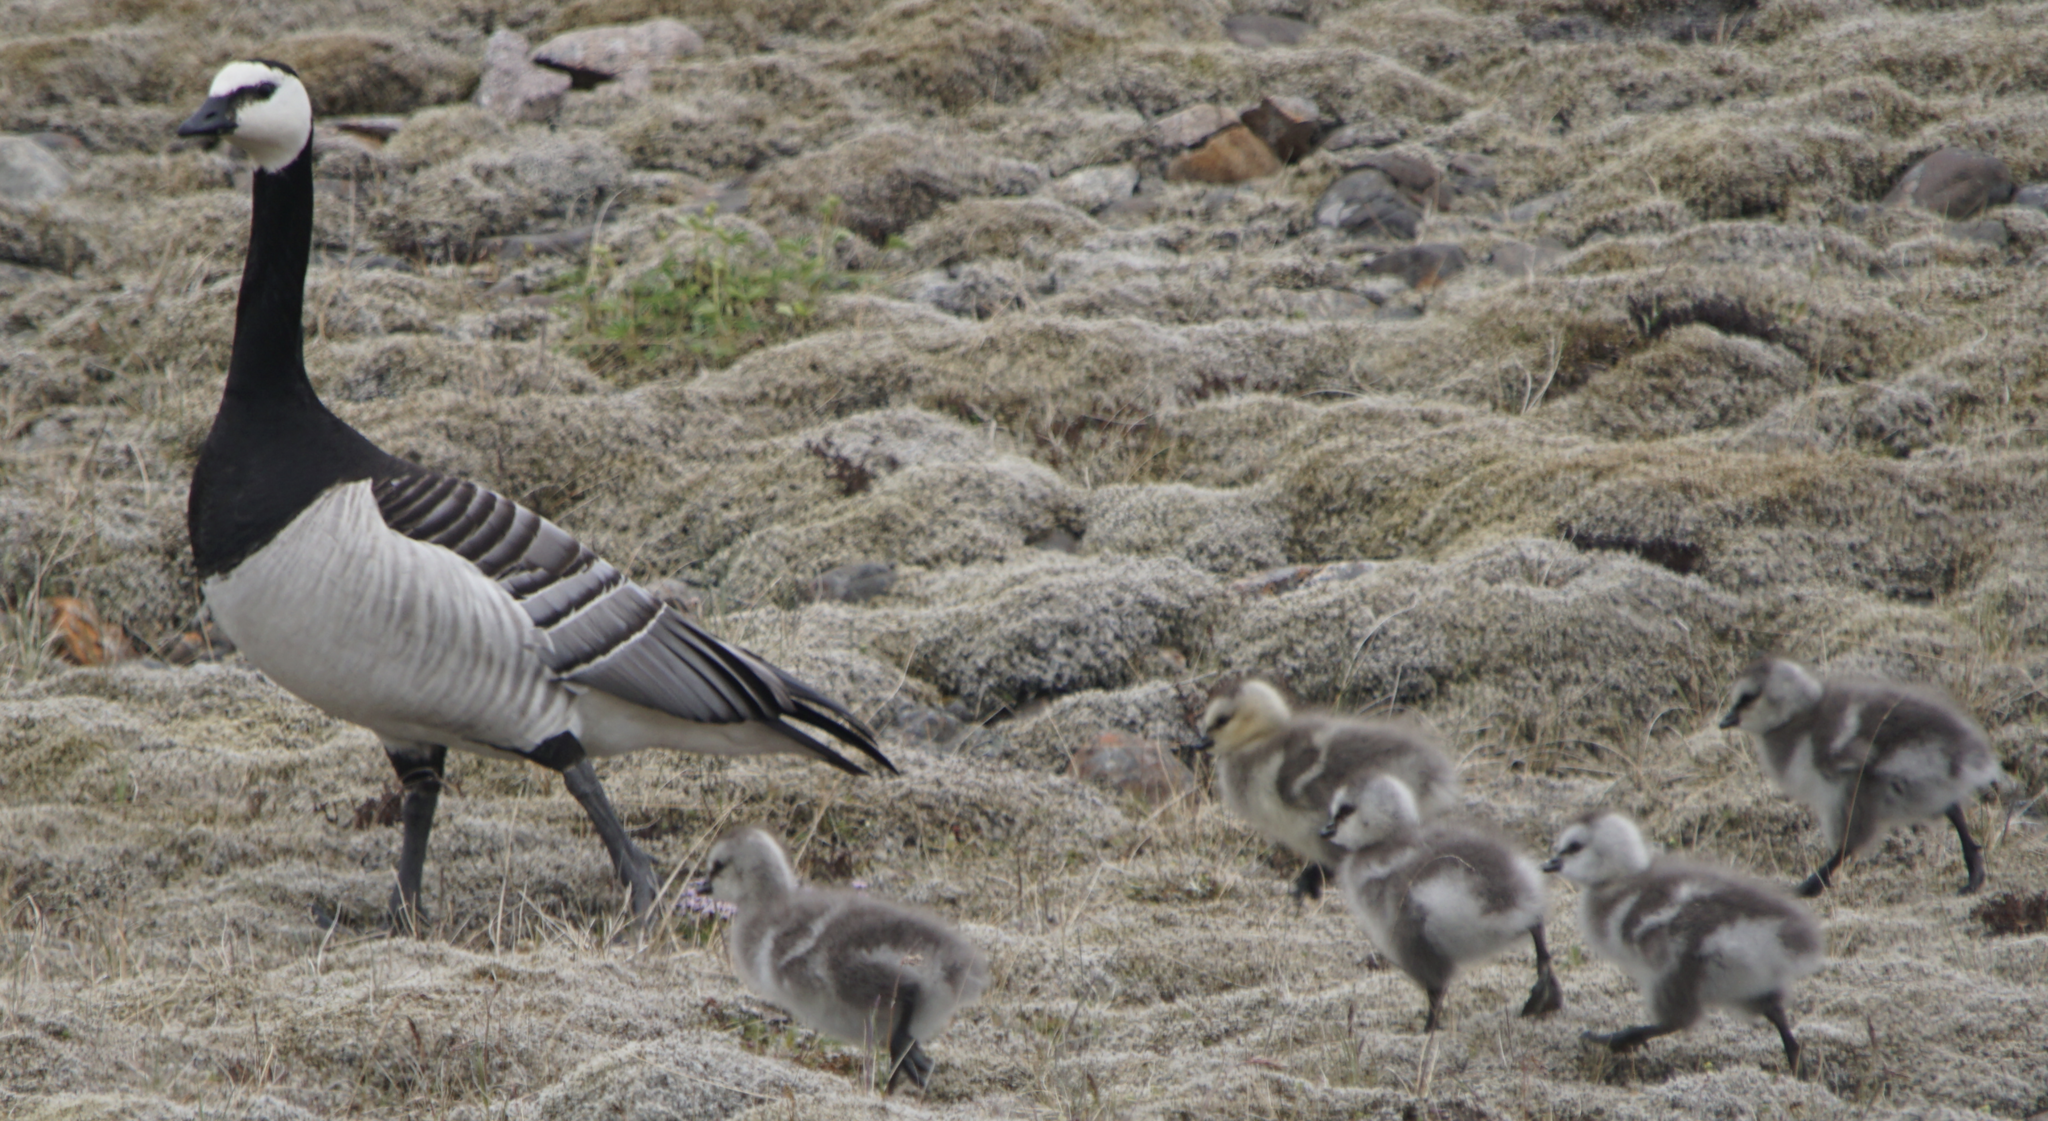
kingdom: Animalia
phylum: Chordata
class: Aves
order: Anseriformes
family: Anatidae
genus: Branta
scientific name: Branta leucopsis
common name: Barnacle goose
